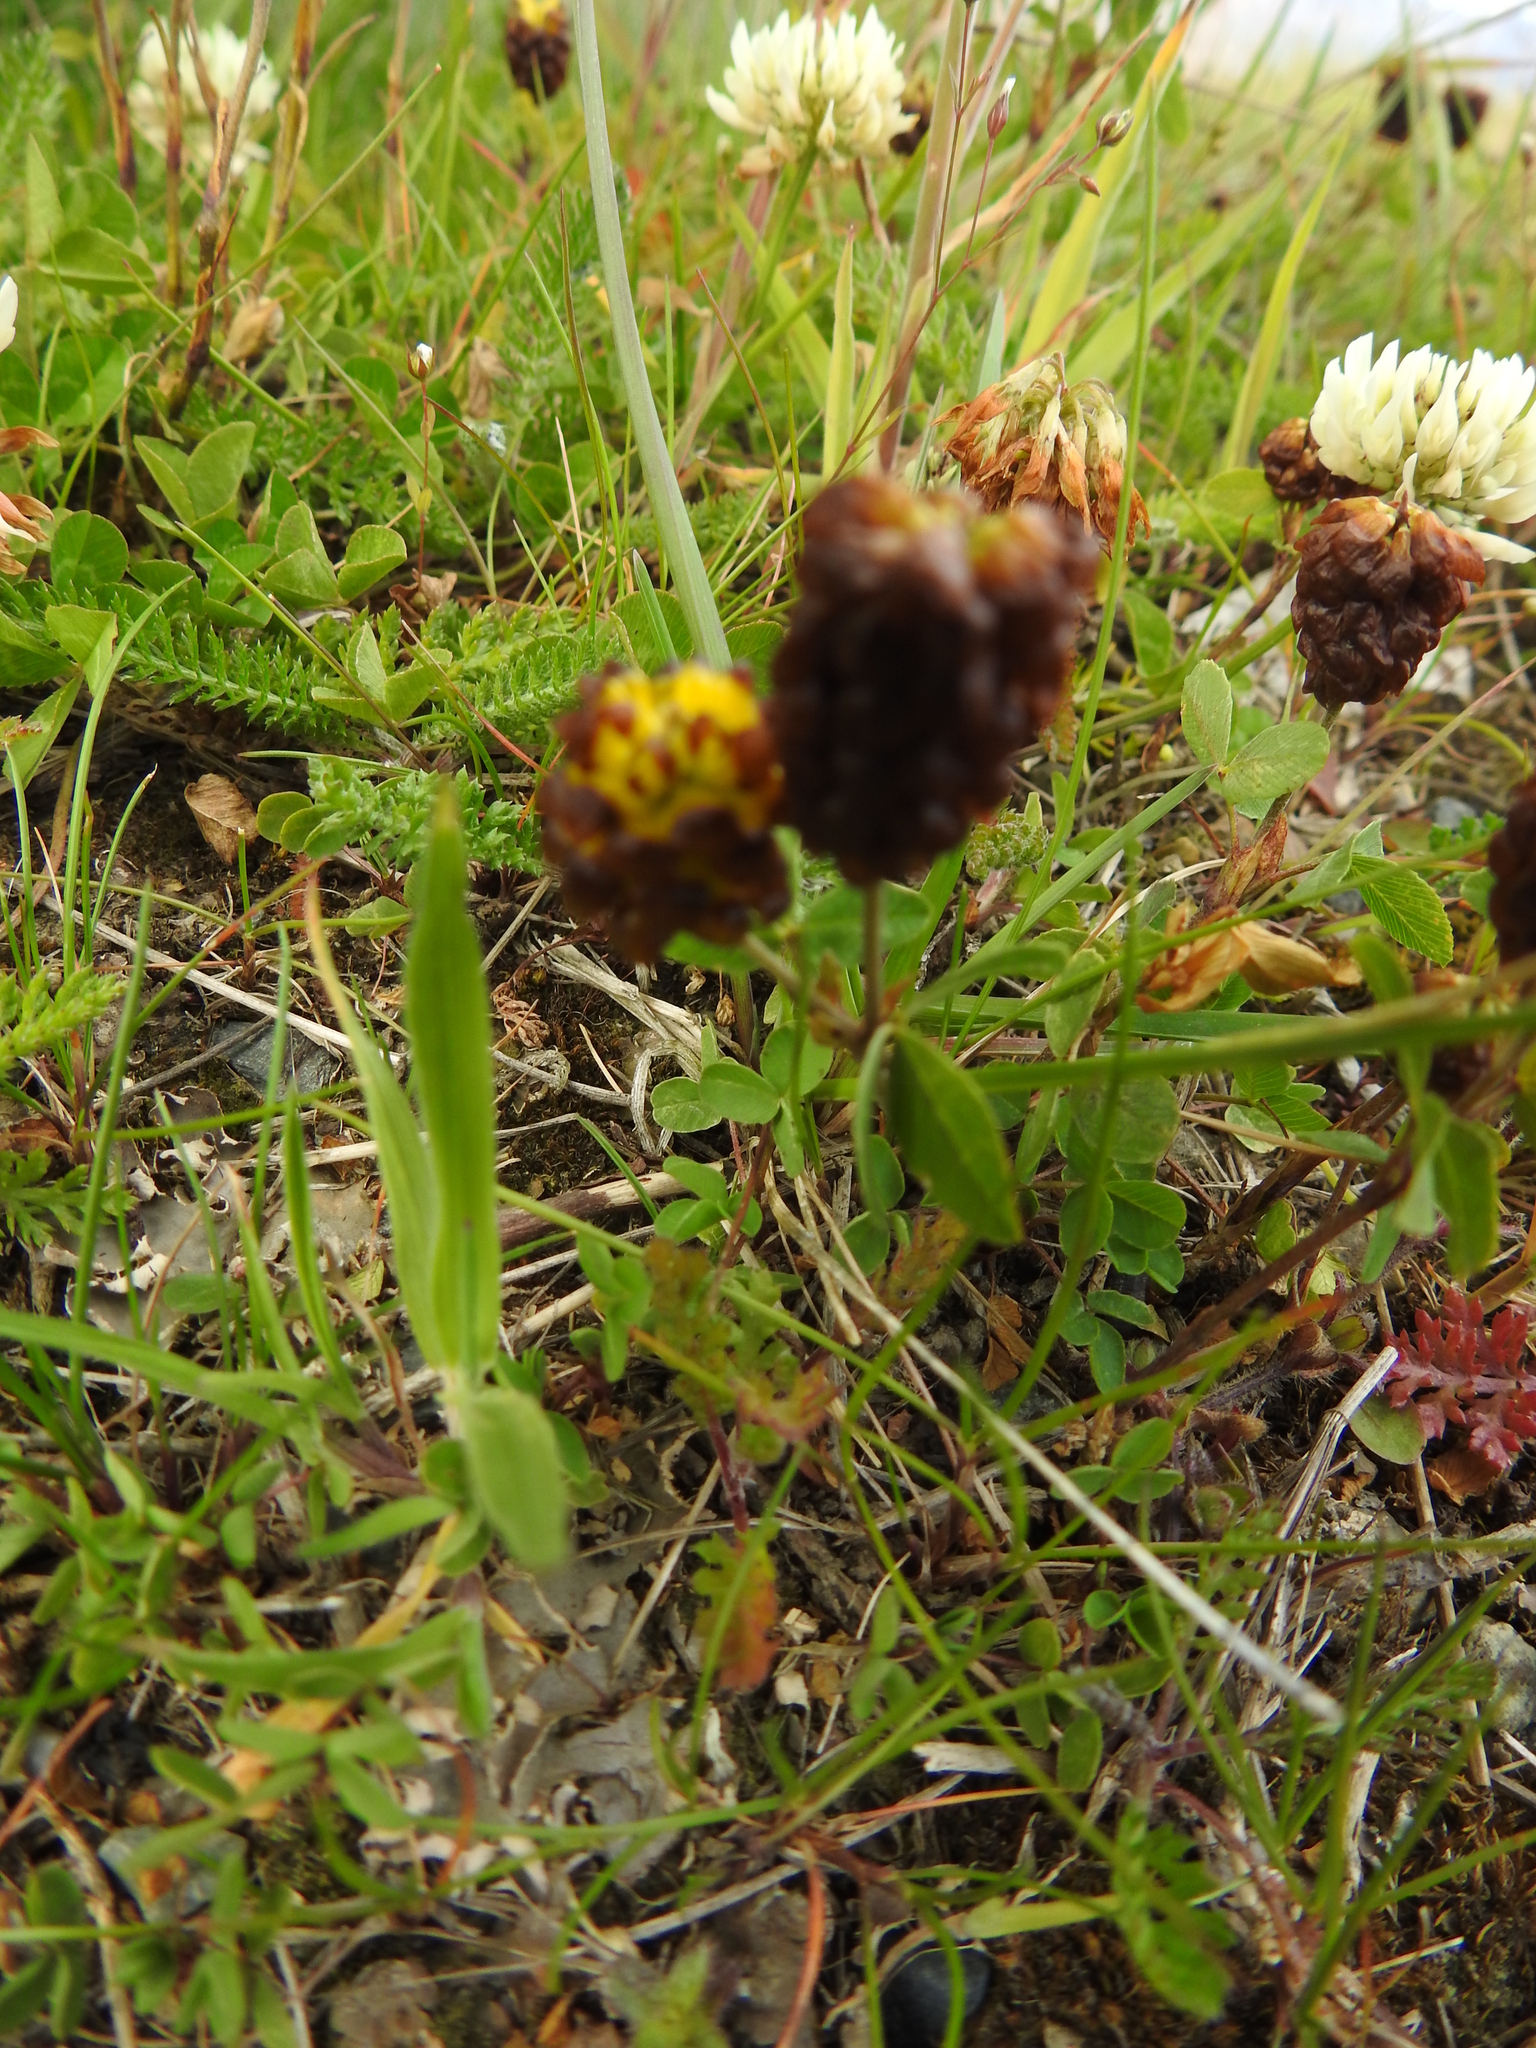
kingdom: Plantae
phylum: Tracheophyta
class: Magnoliopsida
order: Fabales
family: Fabaceae
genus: Trifolium
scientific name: Trifolium spadiceum
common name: Brown moor clover
